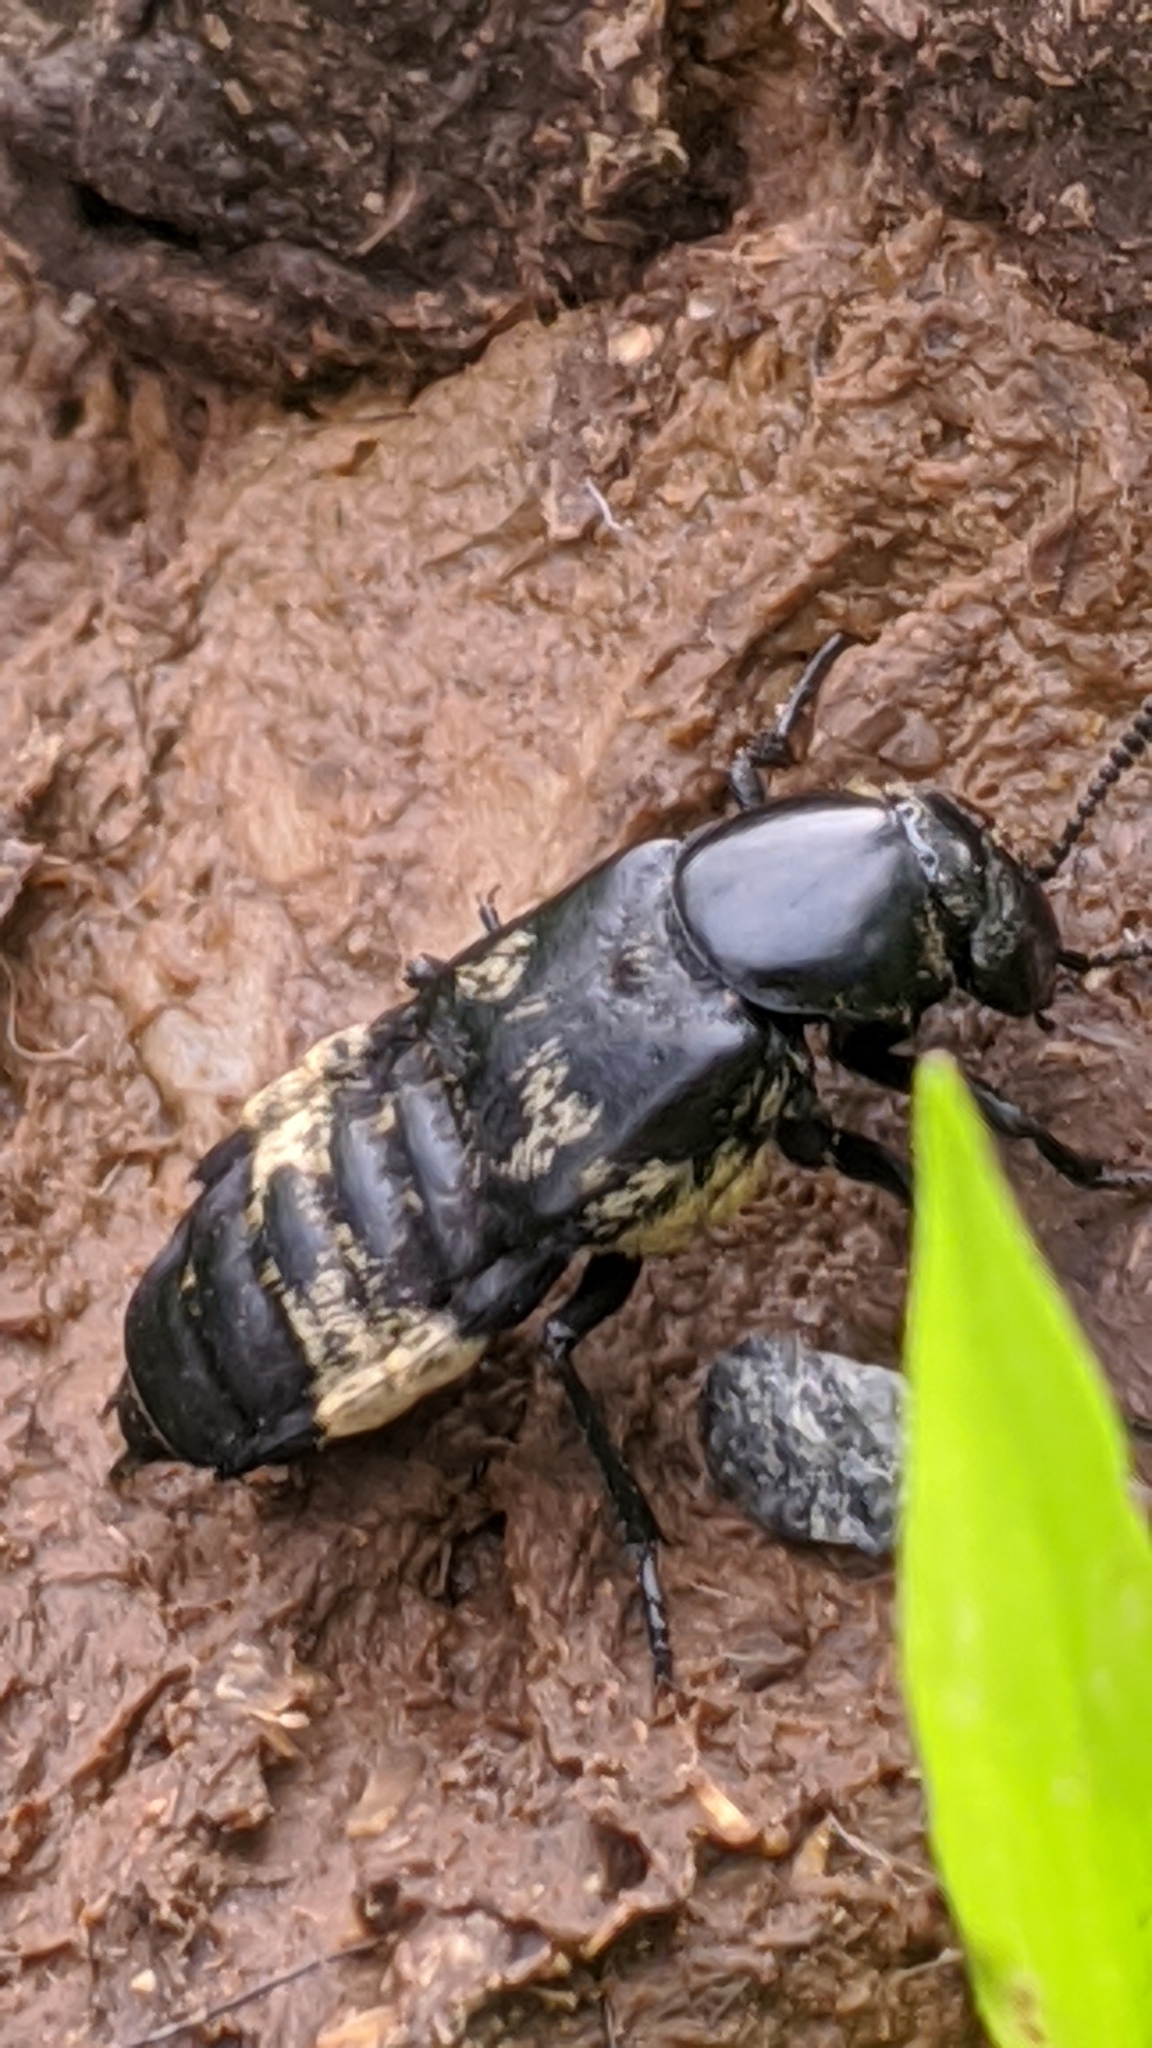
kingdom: Animalia
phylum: Arthropoda
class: Insecta
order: Coleoptera
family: Staphylinidae
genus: Creophilus
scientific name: Creophilus maxillosus
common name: Hairy rove beetle
